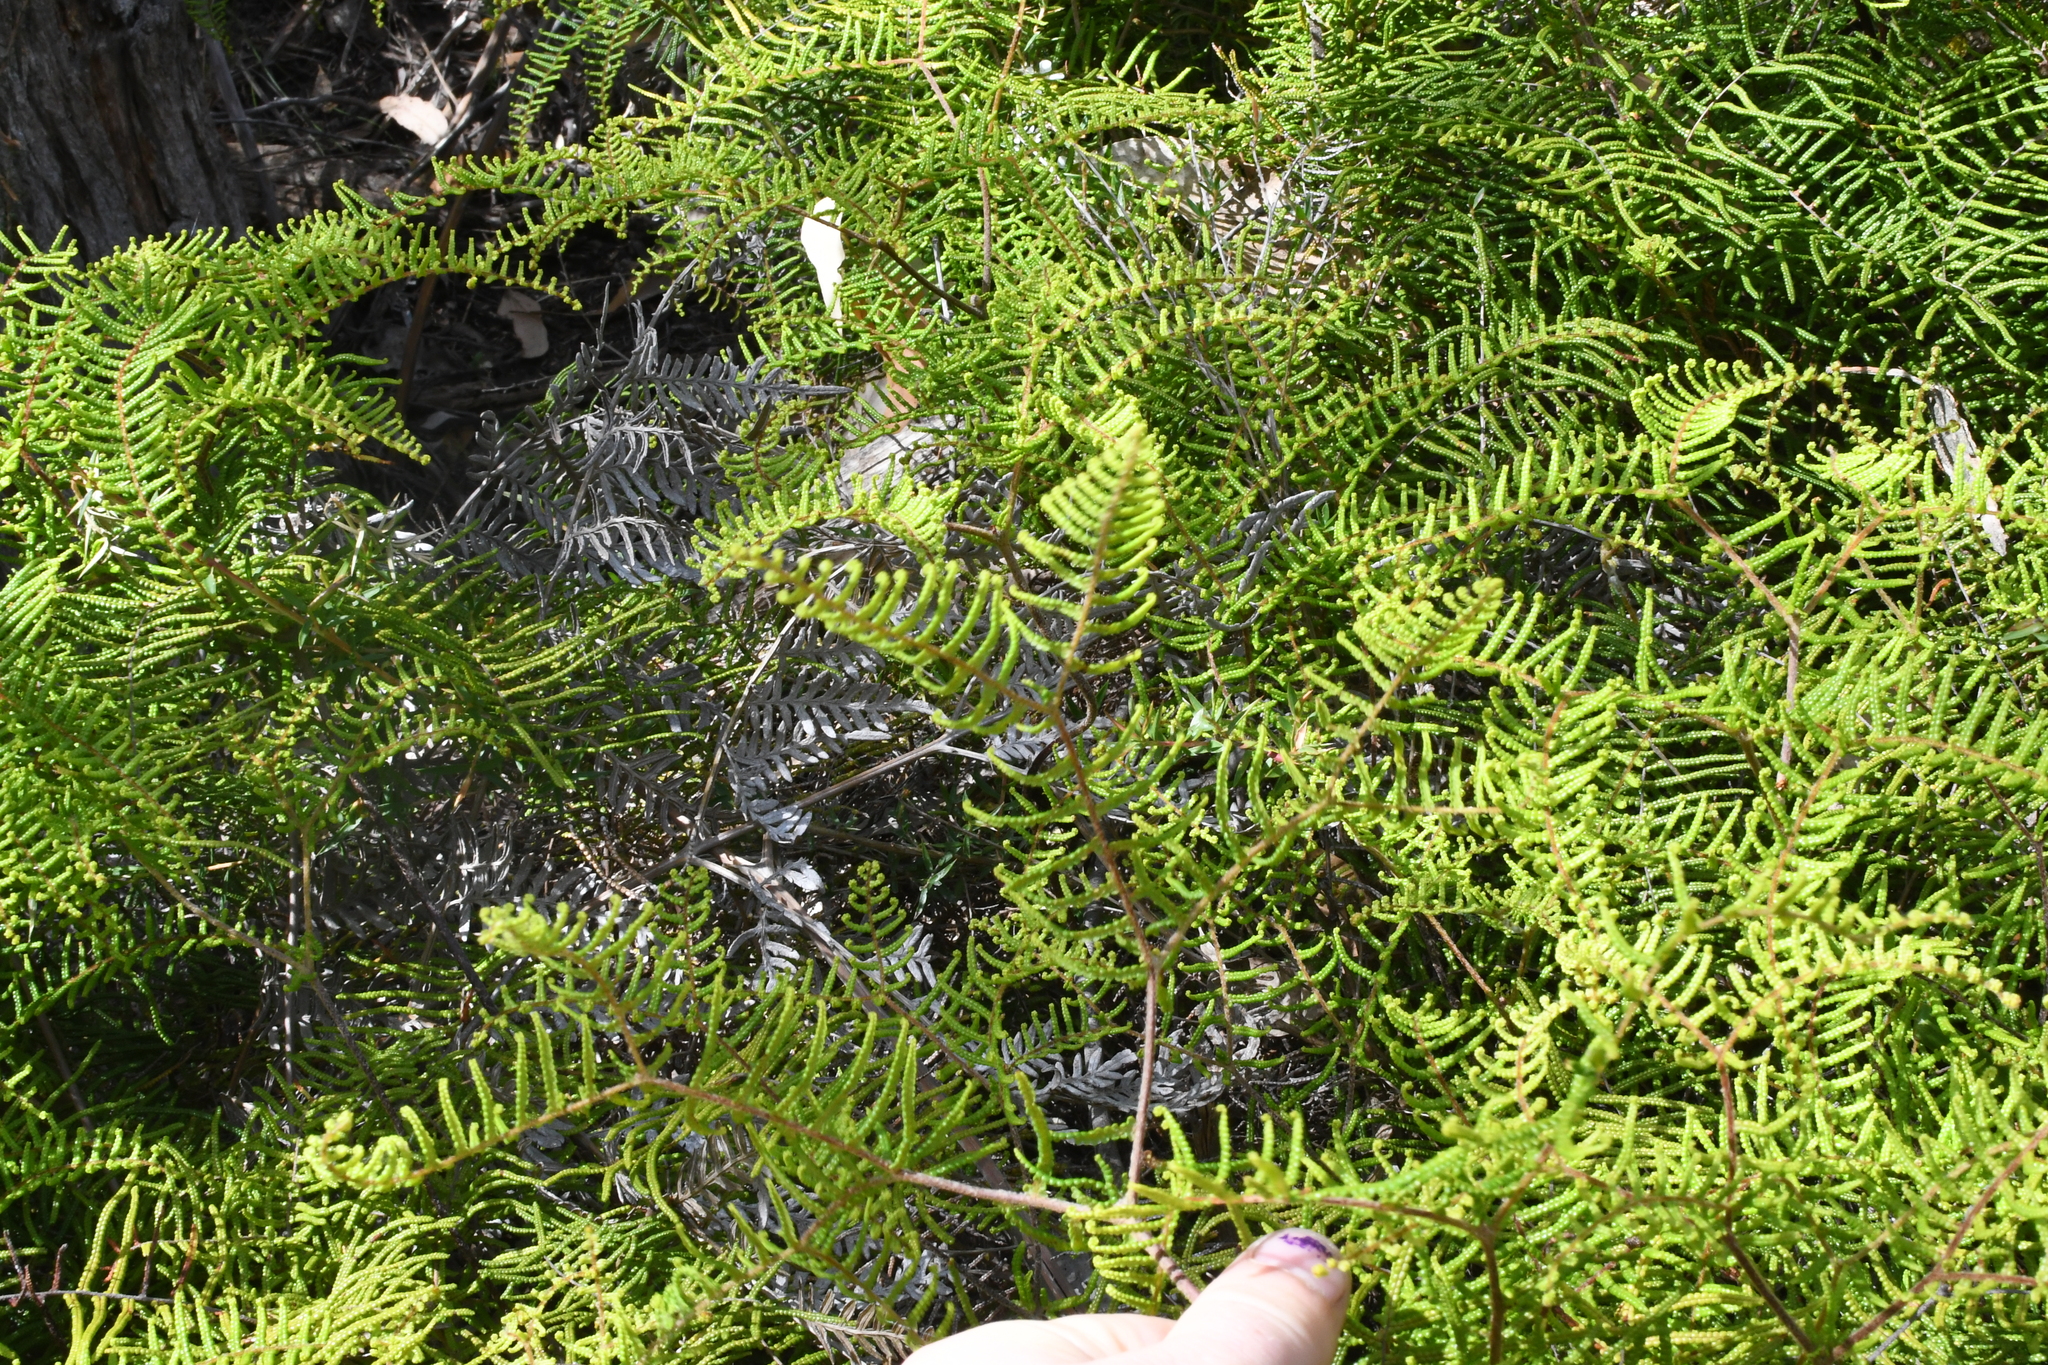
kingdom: Plantae
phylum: Tracheophyta
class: Polypodiopsida
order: Gleicheniales
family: Gleicheniaceae
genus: Gleichenia
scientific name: Gleichenia microphylla
